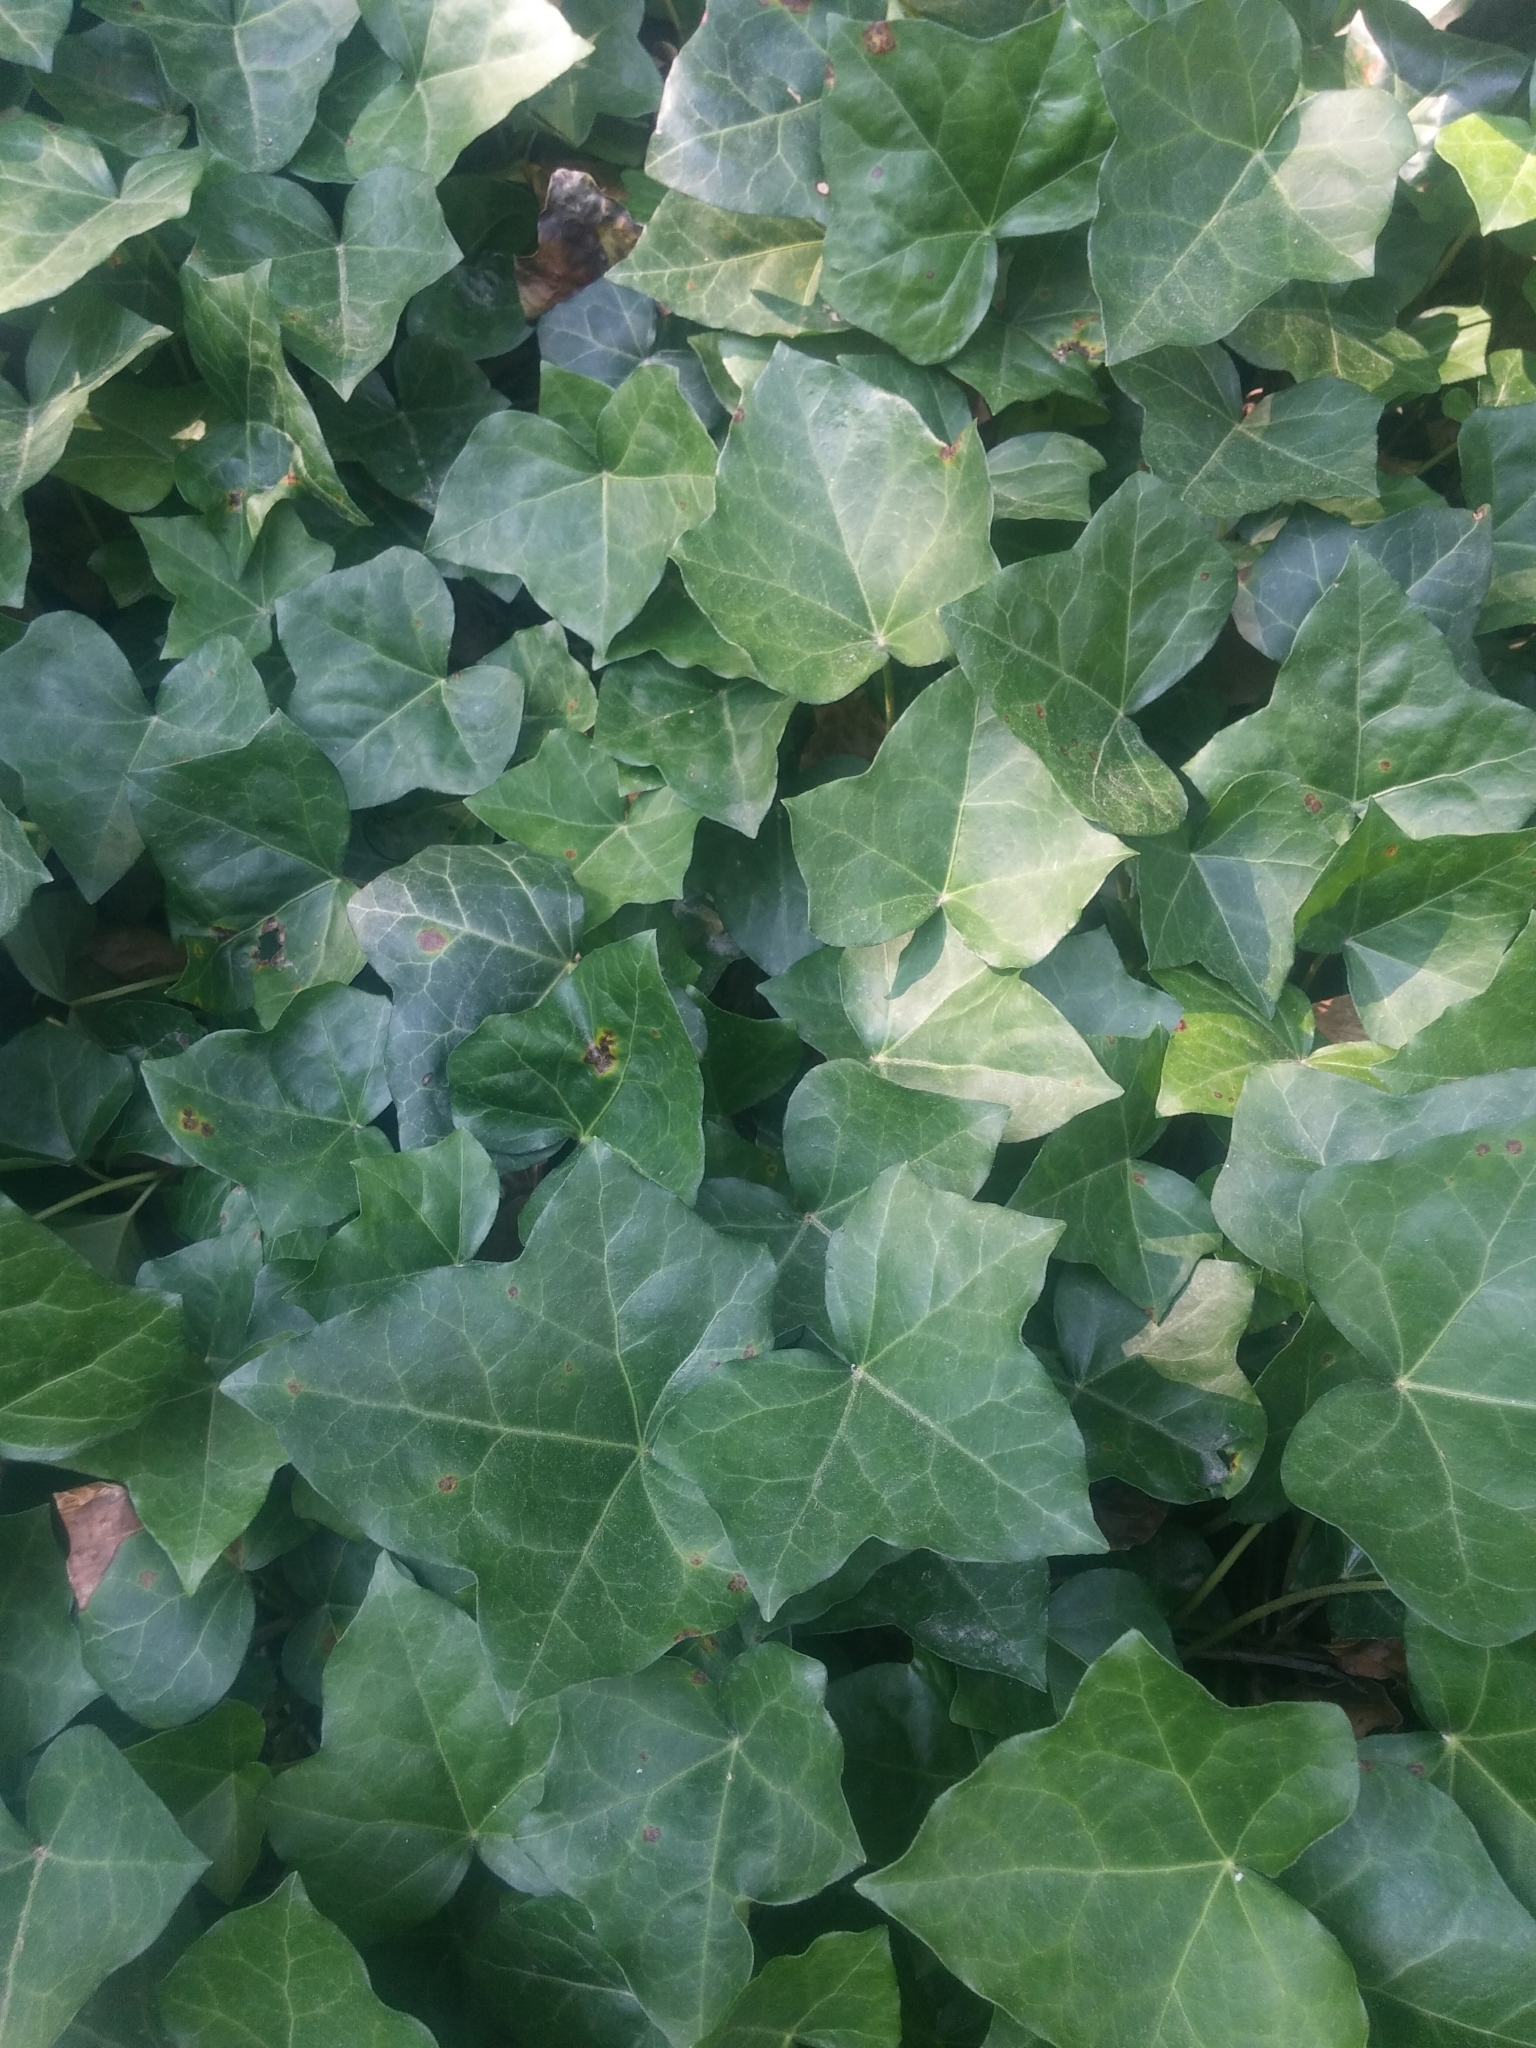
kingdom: Plantae
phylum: Tracheophyta
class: Magnoliopsida
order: Apiales
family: Araliaceae
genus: Hedera
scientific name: Hedera helix
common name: Ivy
